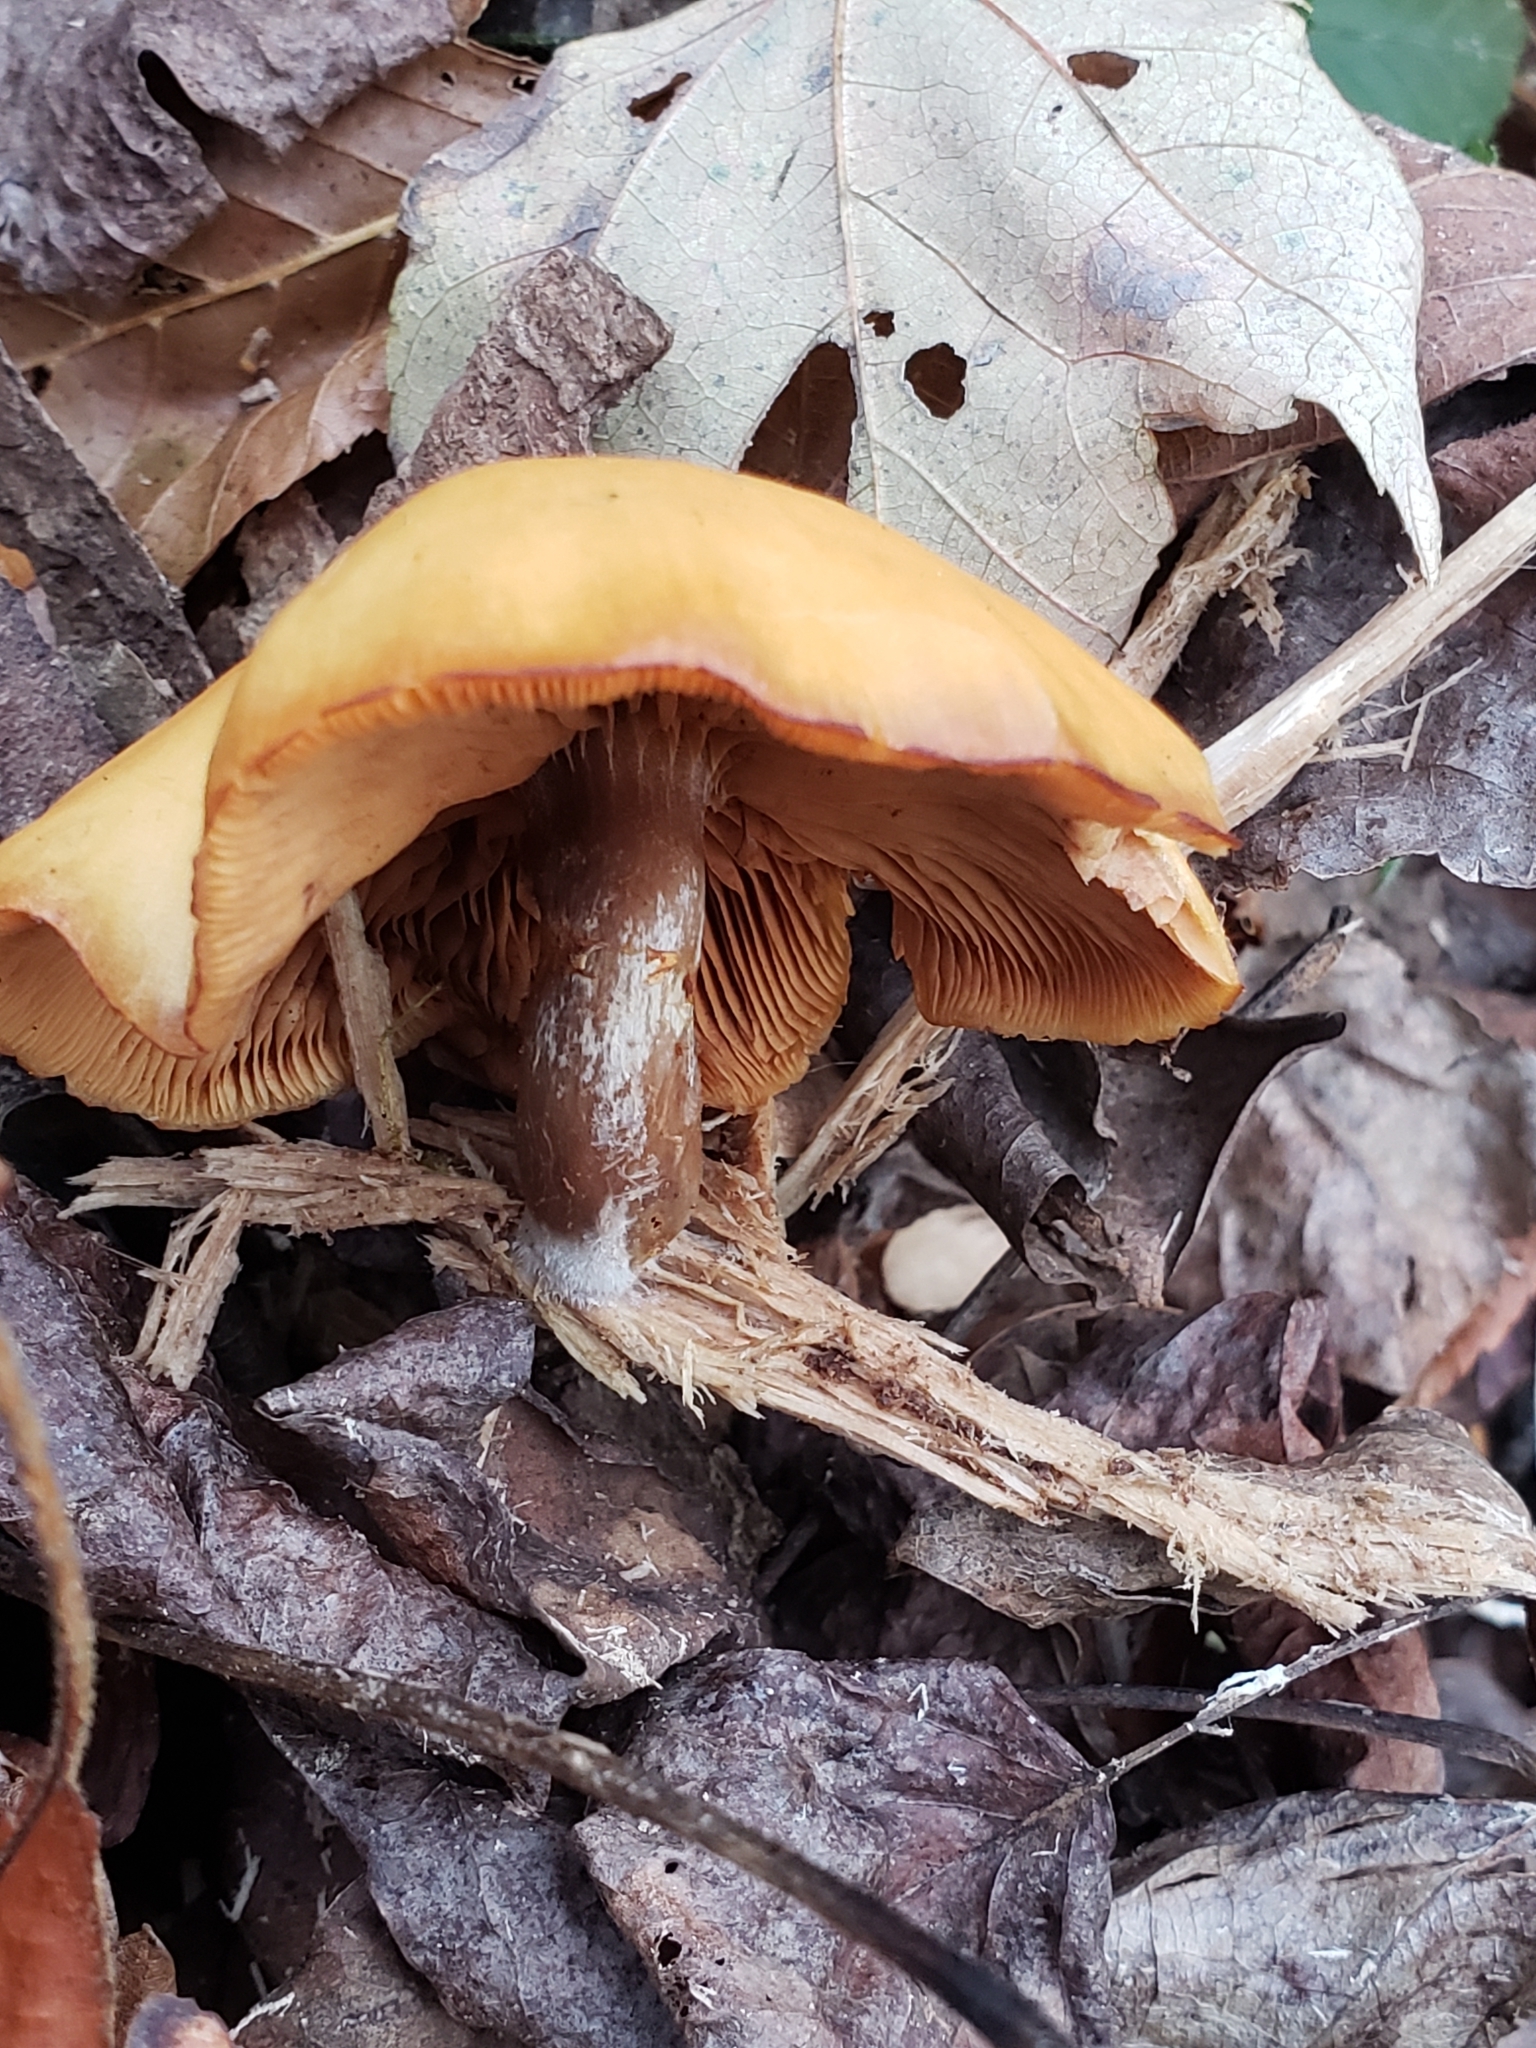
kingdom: Fungi
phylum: Basidiomycota
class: Agaricomycetes
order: Agaricales
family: Hymenogastraceae
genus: Galerina
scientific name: Galerina marginata
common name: Funeral bell
